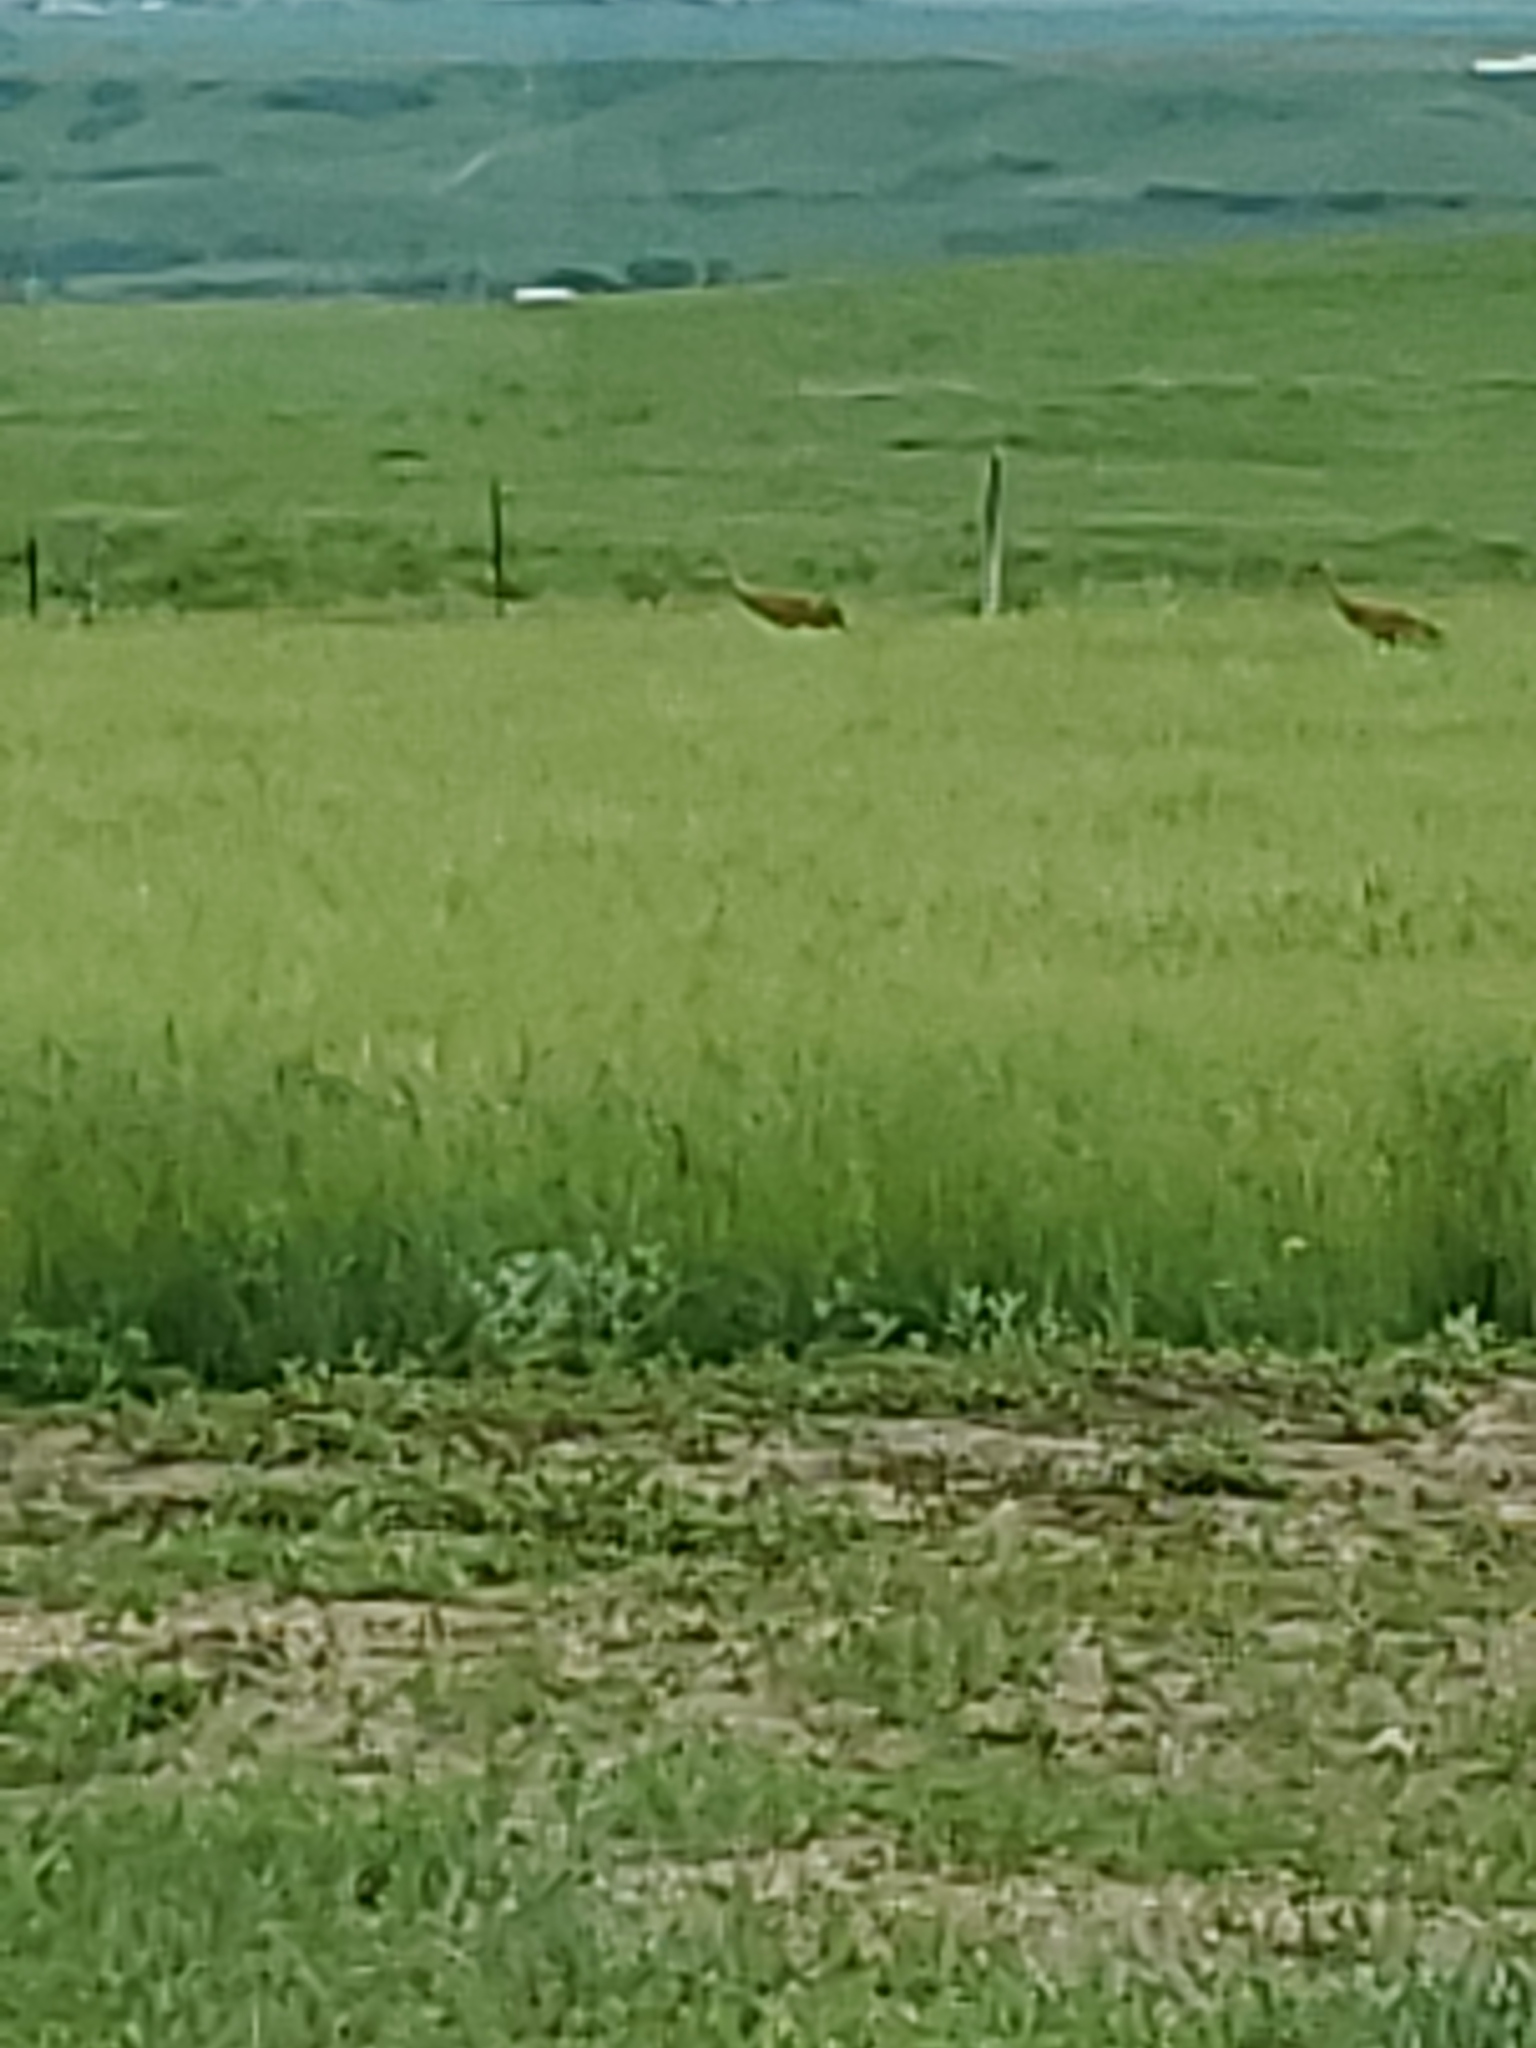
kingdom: Animalia
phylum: Chordata
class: Aves
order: Gruiformes
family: Gruidae
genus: Grus
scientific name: Grus canadensis
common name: Sandhill crane
